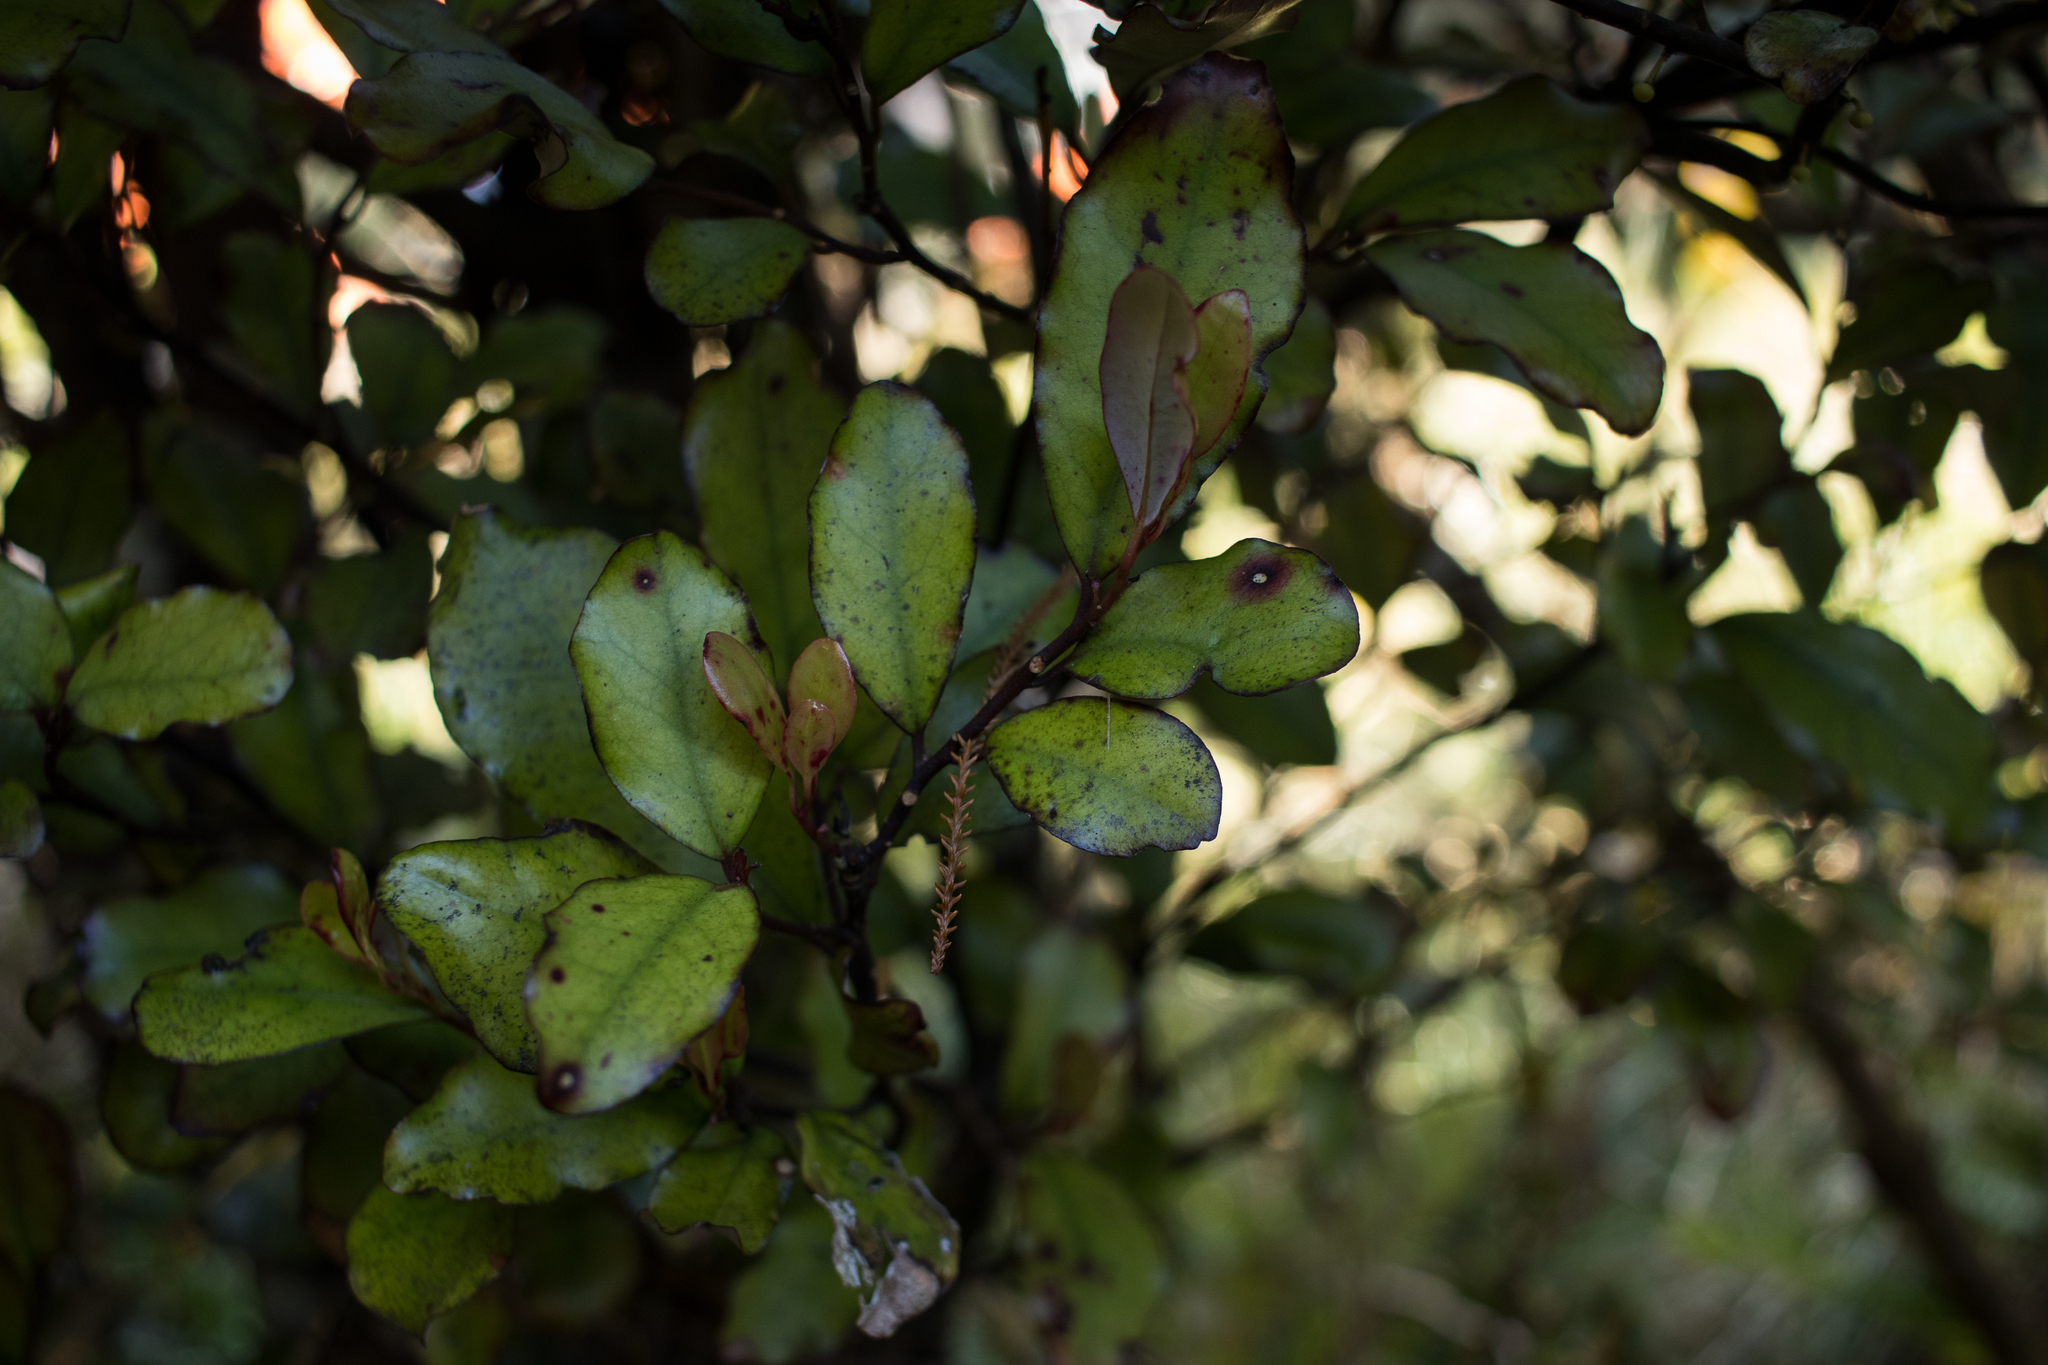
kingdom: Plantae
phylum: Tracheophyta
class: Magnoliopsida
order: Canellales
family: Winteraceae
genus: Pseudowintera
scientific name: Pseudowintera colorata
